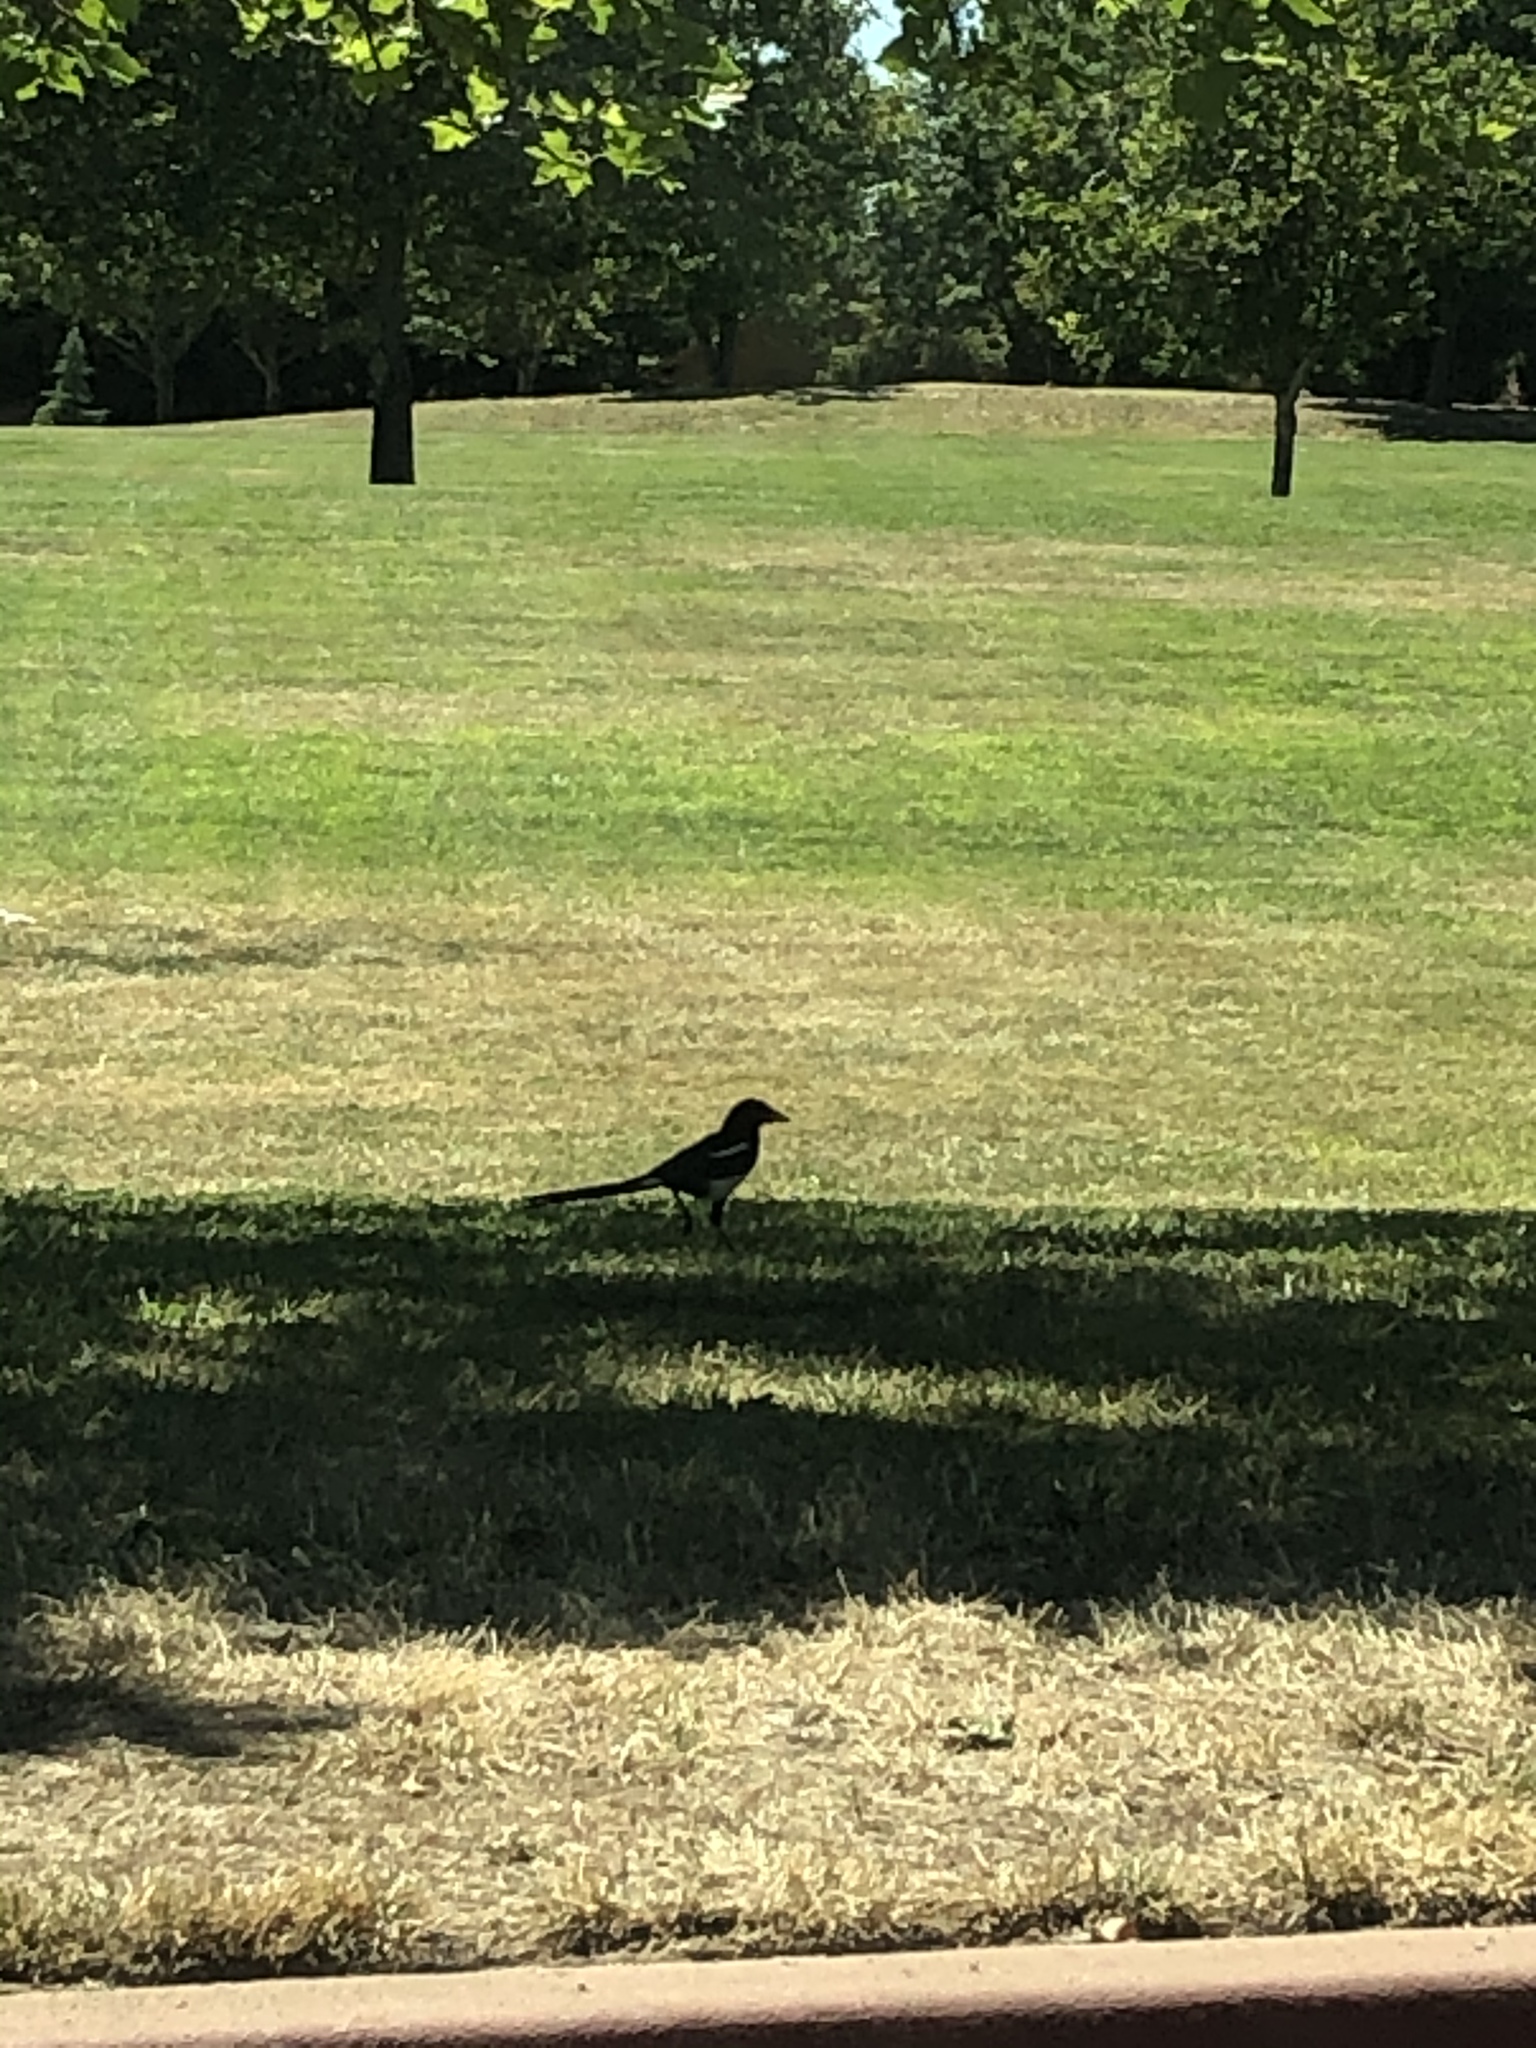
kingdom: Animalia
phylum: Chordata
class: Aves
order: Passeriformes
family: Corvidae
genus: Pica
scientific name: Pica nuttalli
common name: Yellow-billed magpie
